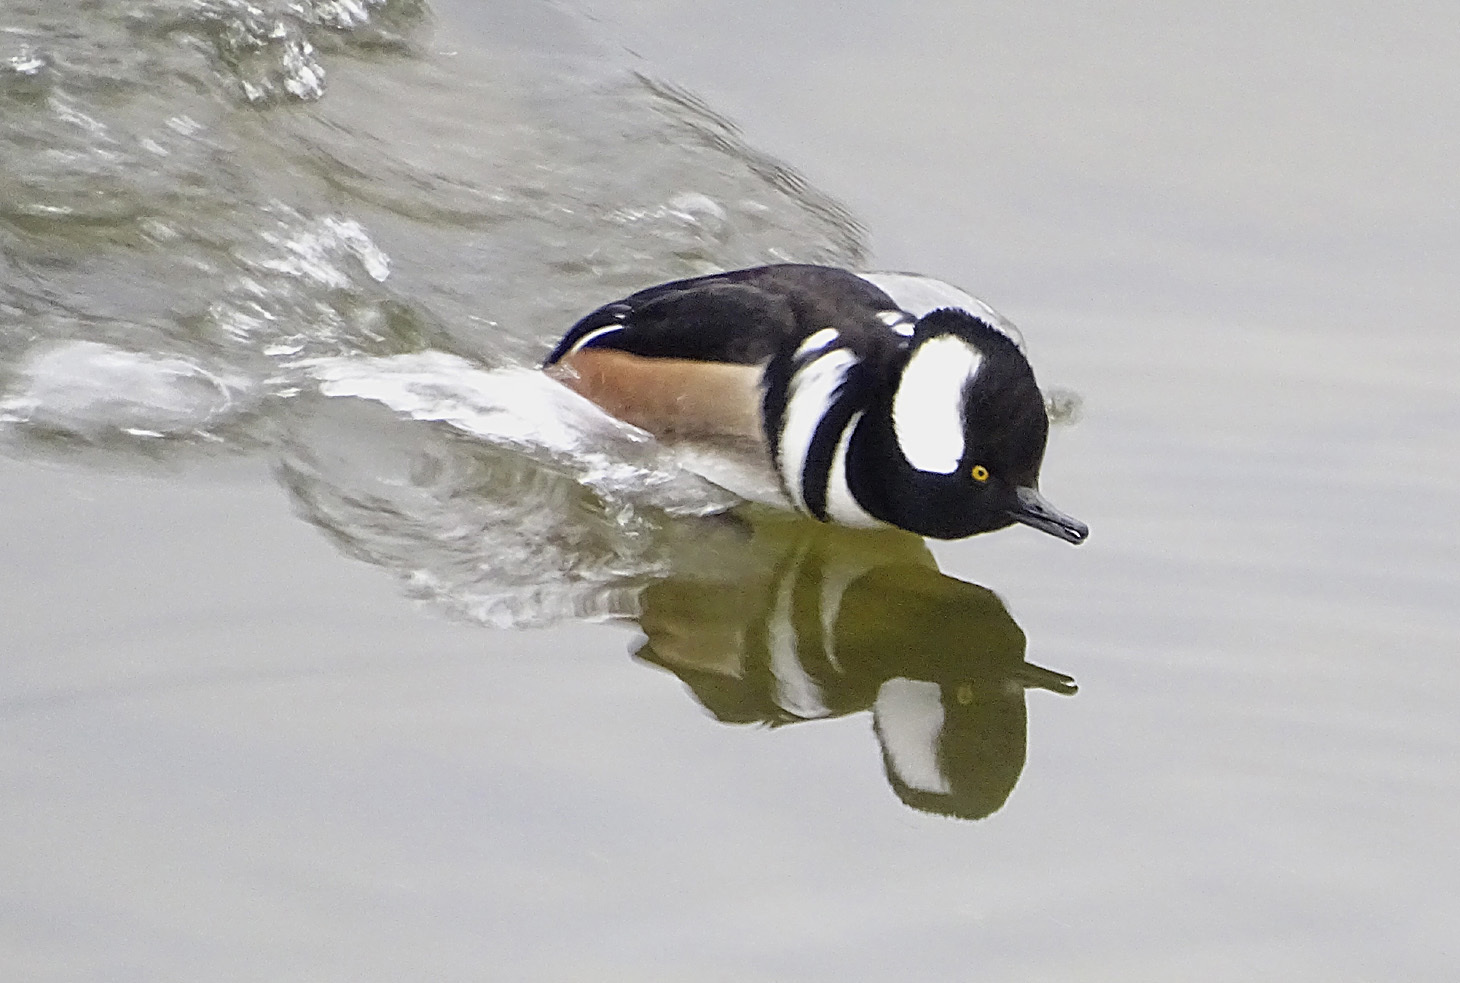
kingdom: Animalia
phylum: Chordata
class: Aves
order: Anseriformes
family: Anatidae
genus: Lophodytes
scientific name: Lophodytes cucullatus
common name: Hooded merganser
